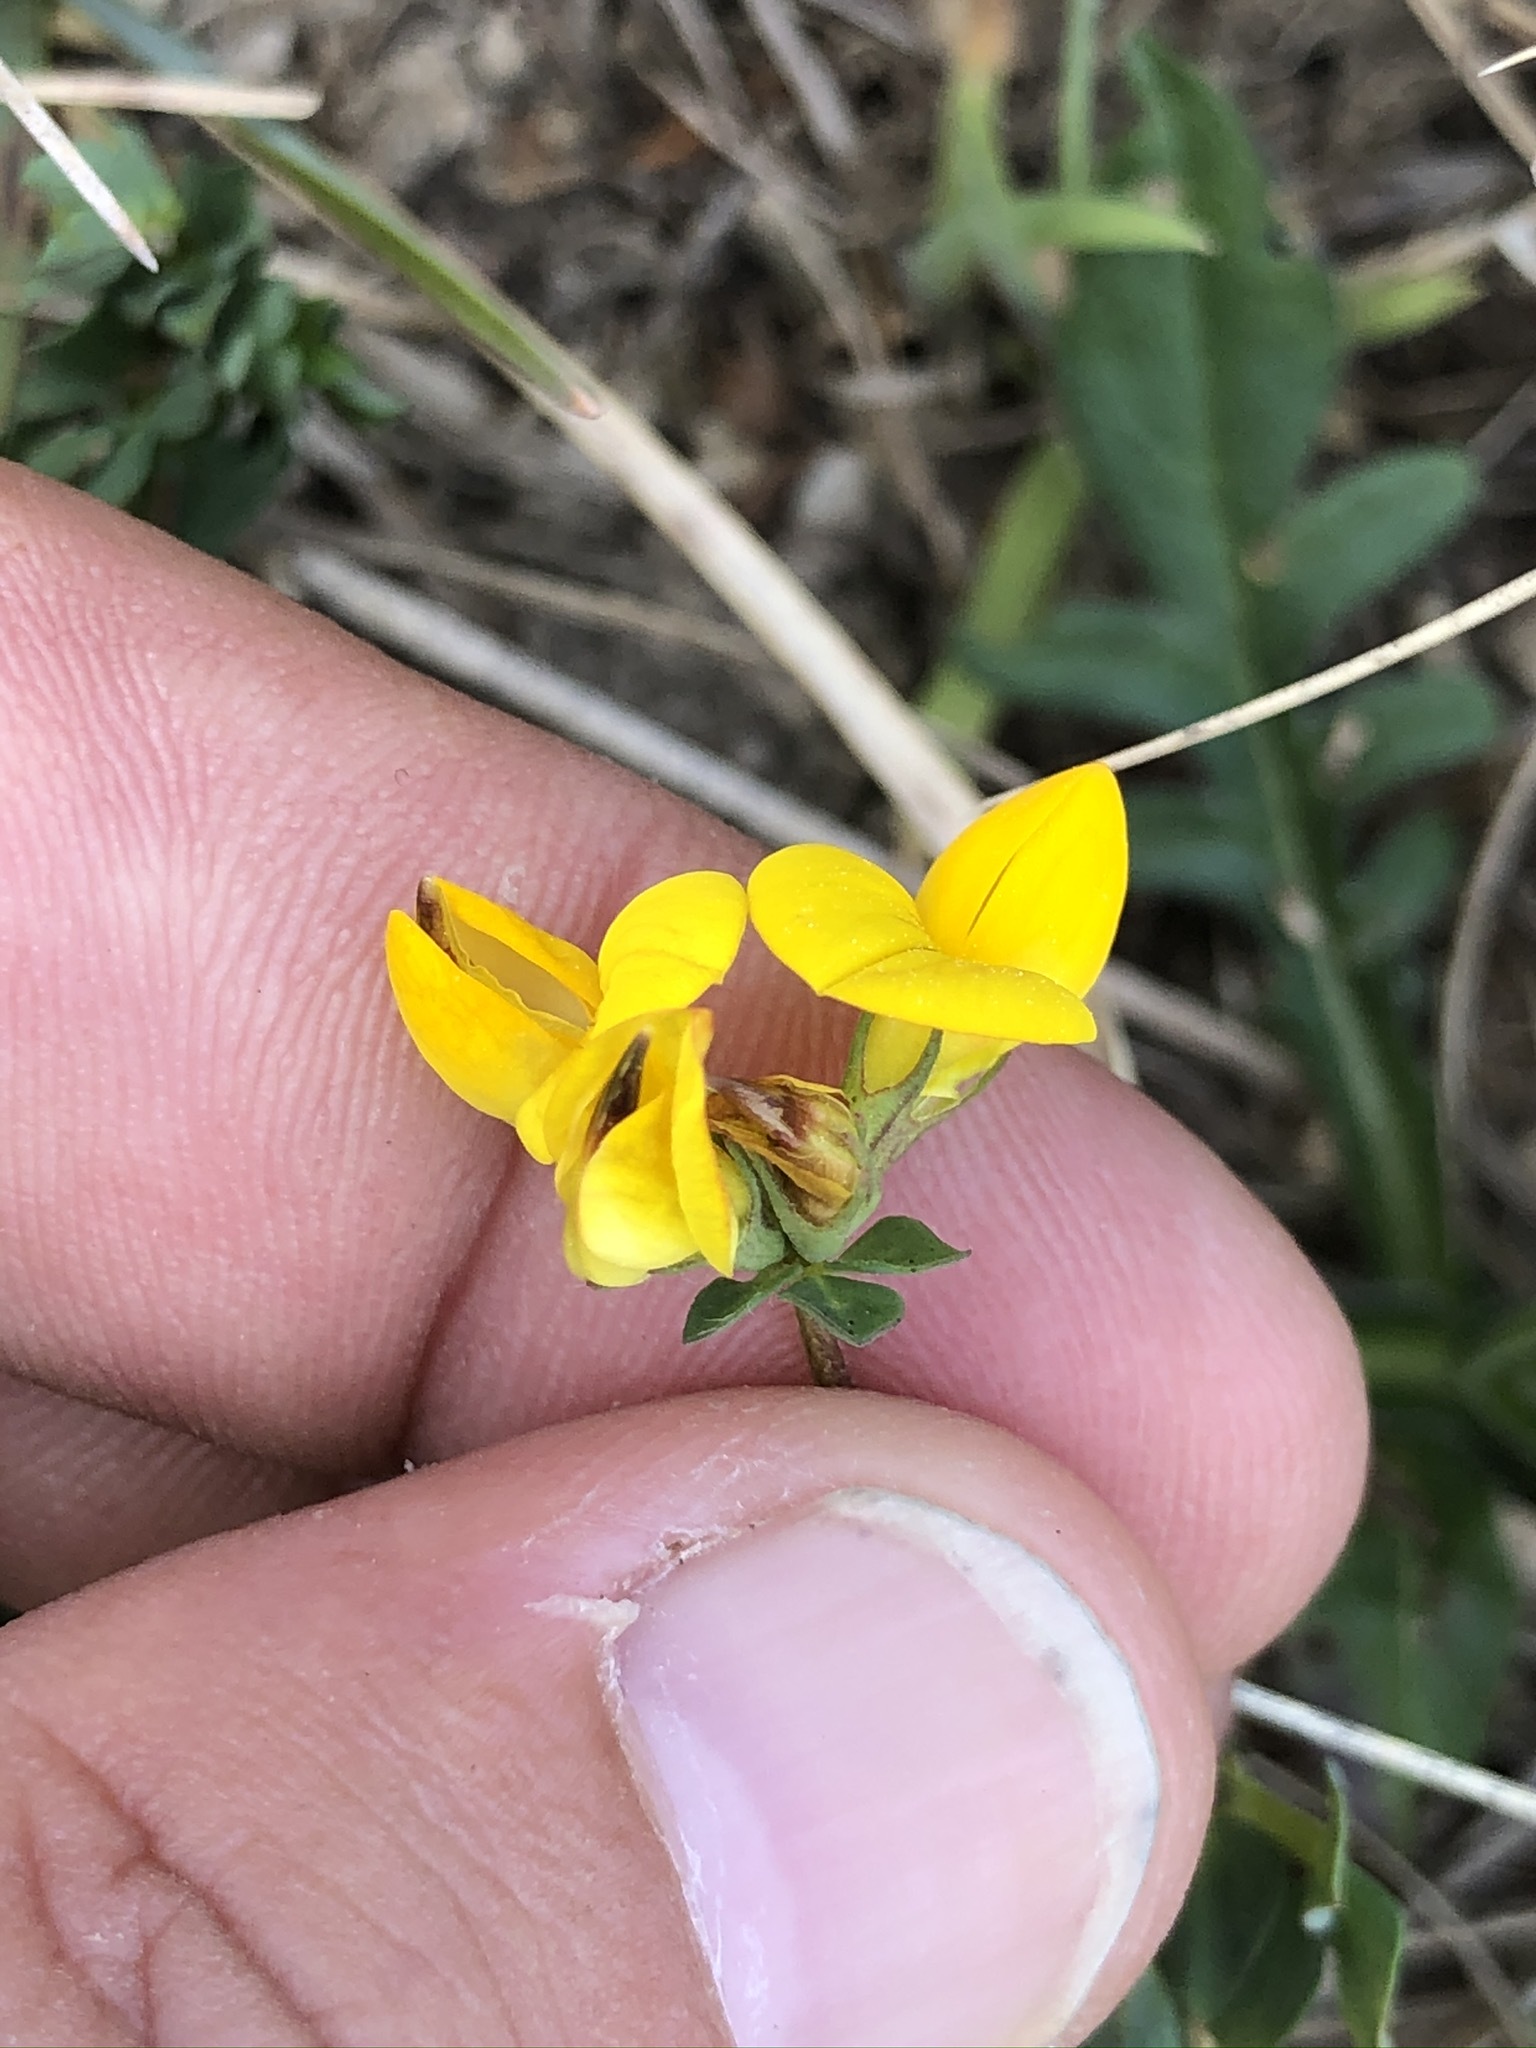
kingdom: Plantae
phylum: Tracheophyta
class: Magnoliopsida
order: Fabales
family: Fabaceae
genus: Lotus
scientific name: Lotus corniculatus
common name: Common bird's-foot-trefoil
